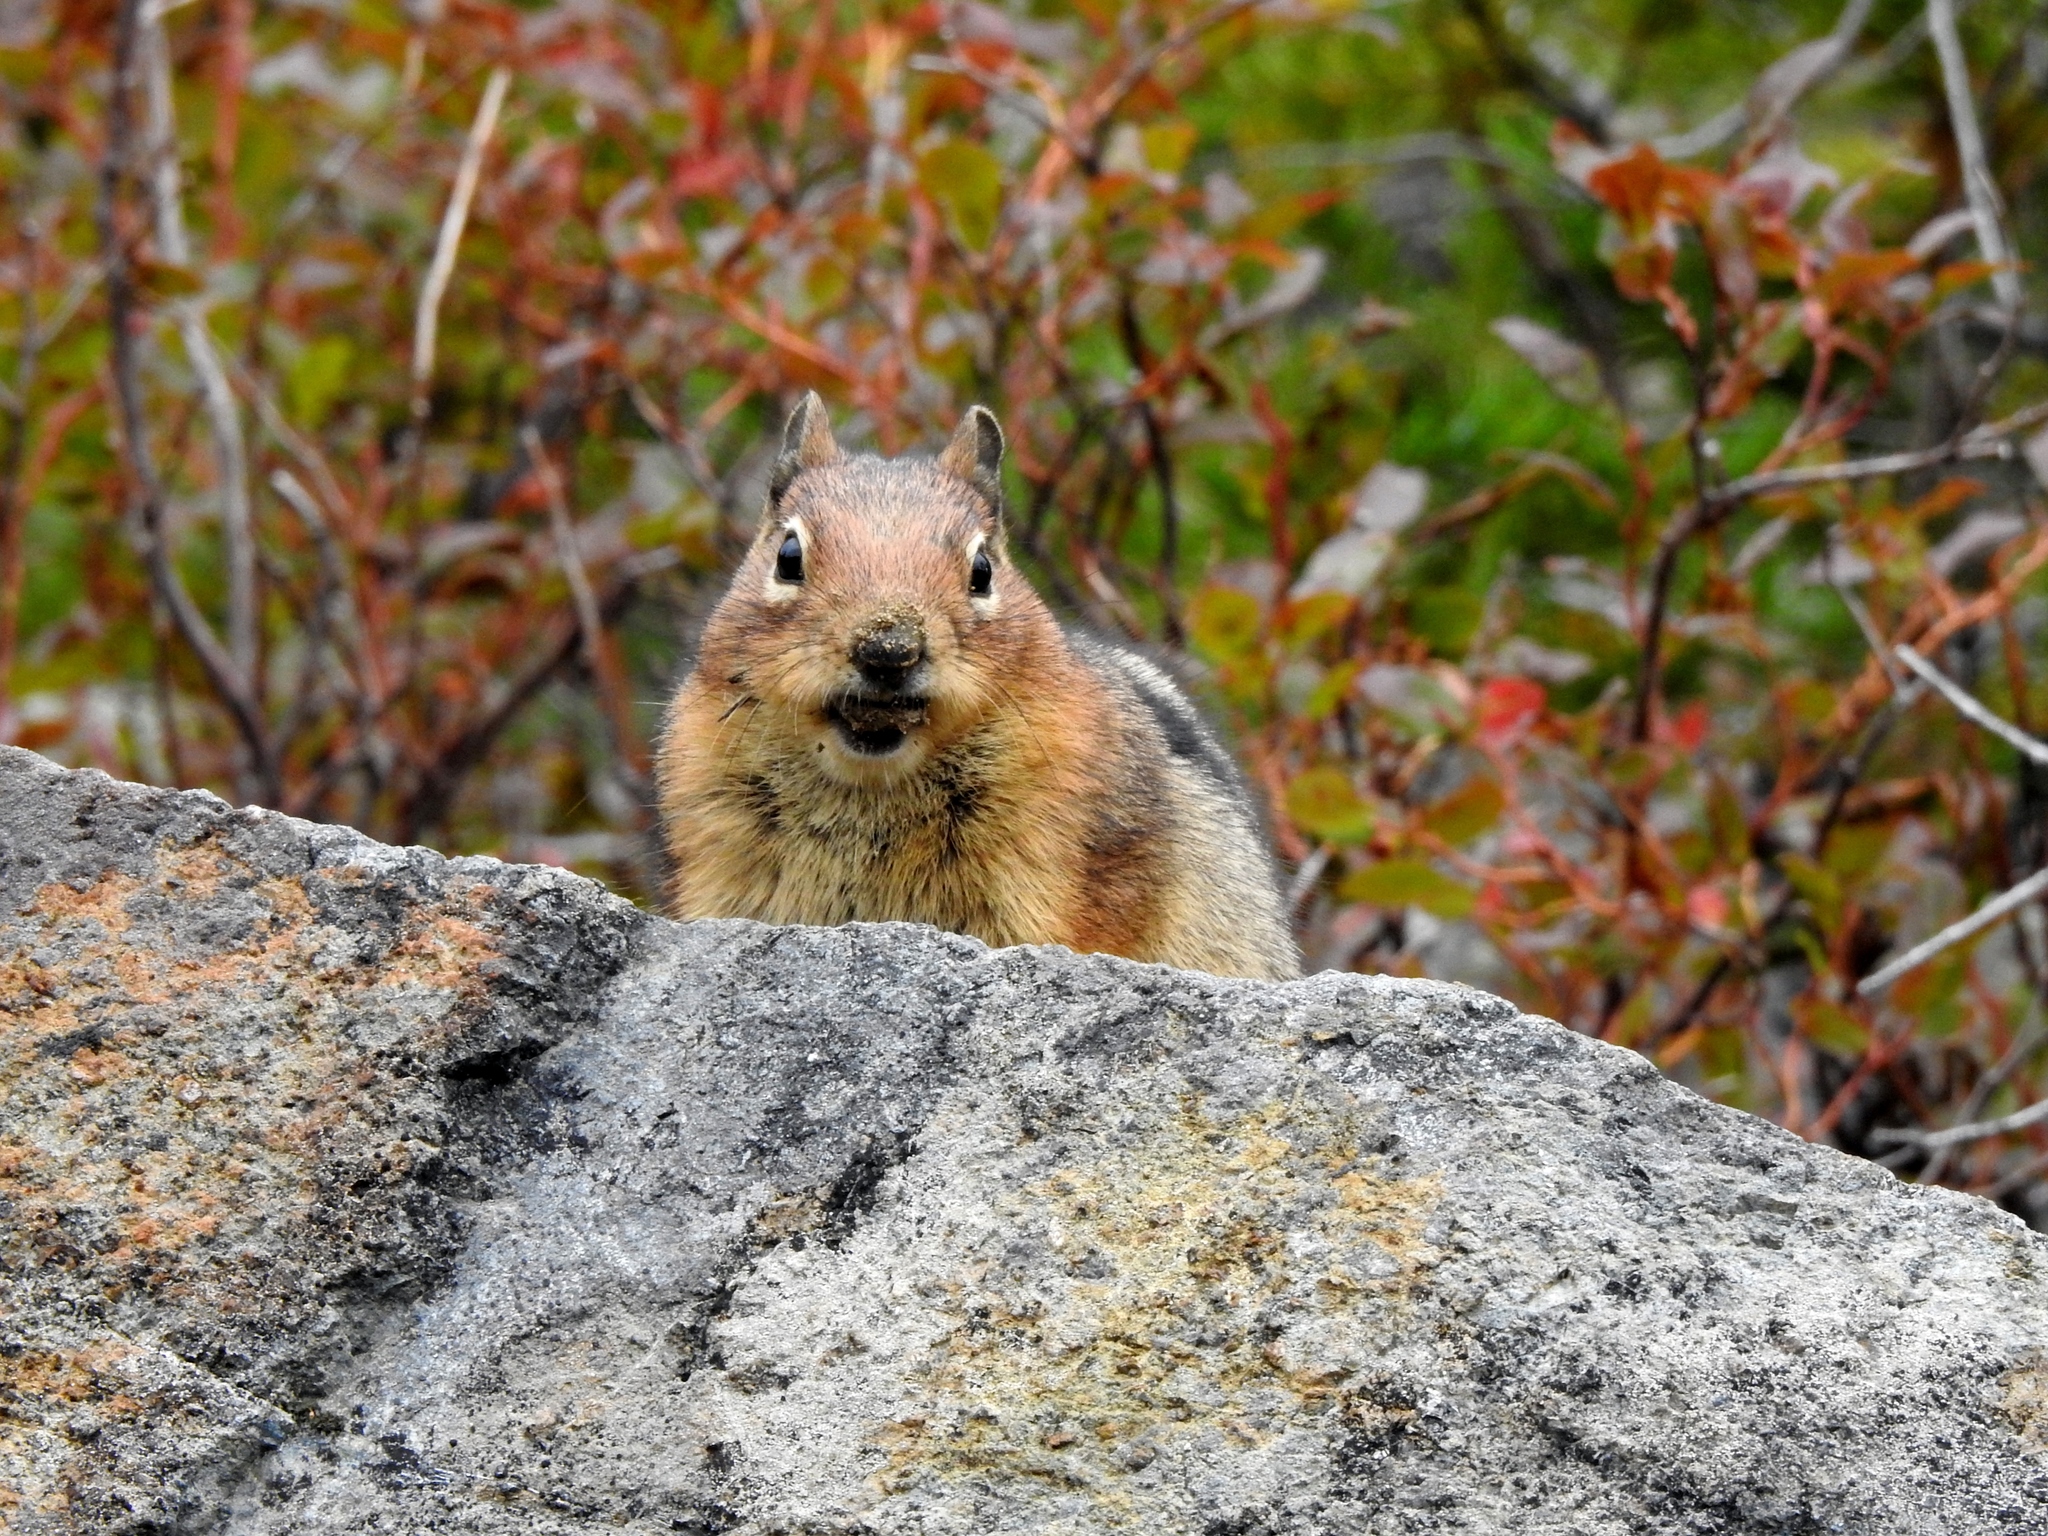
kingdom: Animalia
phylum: Chordata
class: Mammalia
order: Rodentia
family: Sciuridae
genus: Callospermophilus
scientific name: Callospermophilus saturatus
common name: Cascade golden-mantled ground squirrel
